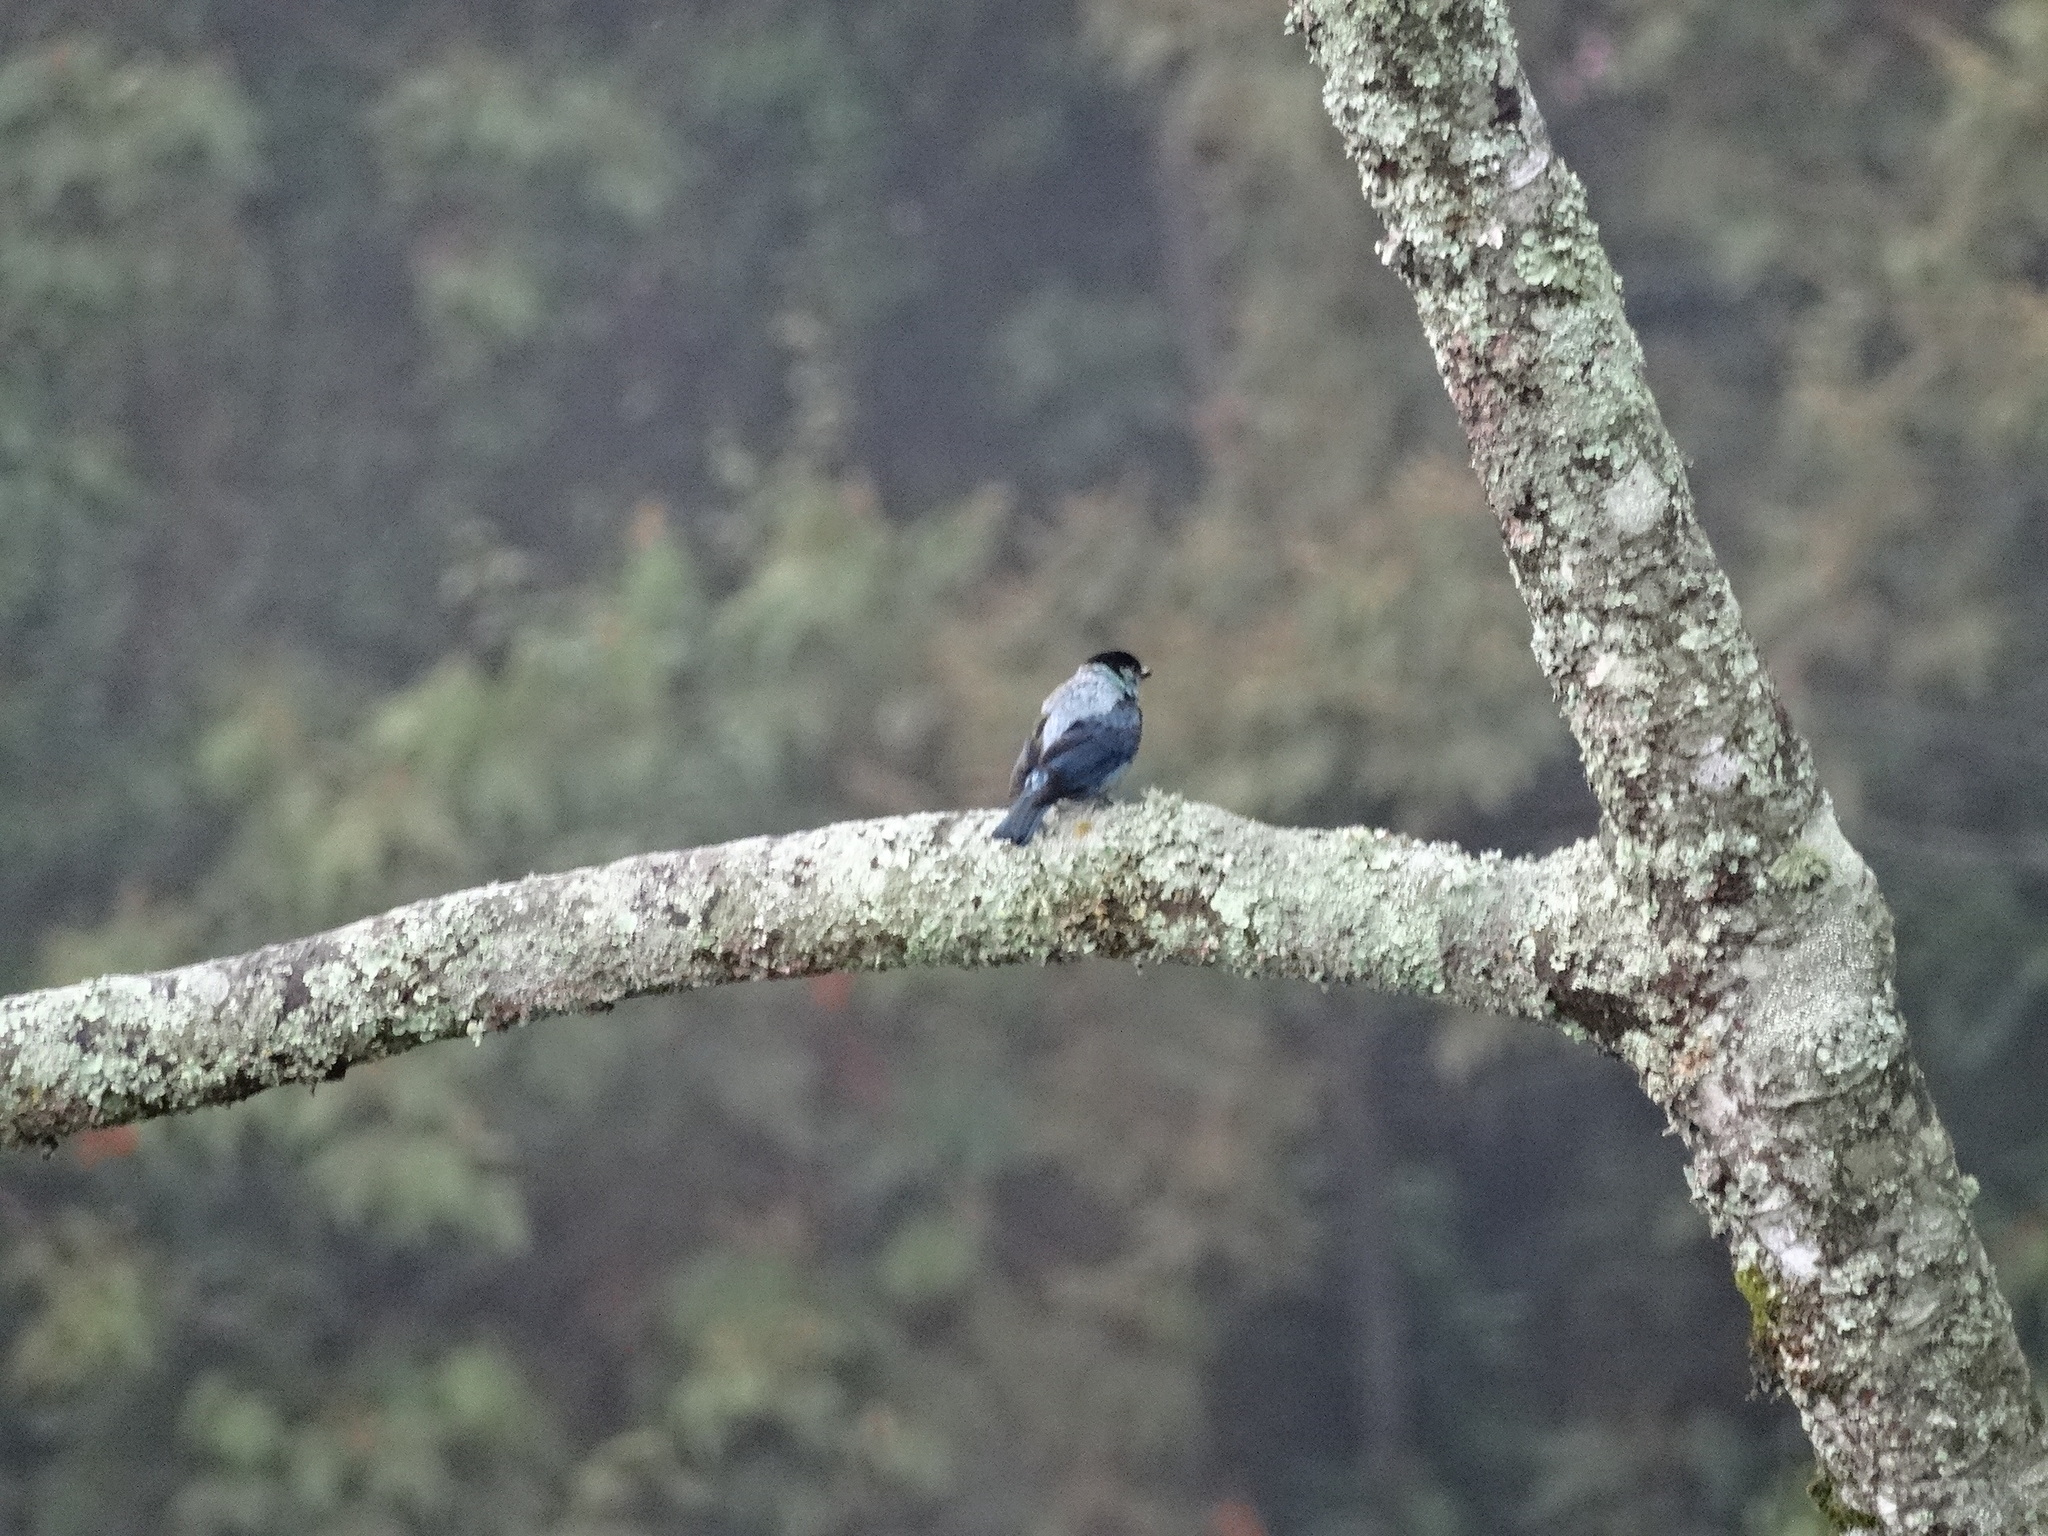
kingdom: Animalia
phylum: Chordata
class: Aves
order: Passeriformes
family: Thraupidae
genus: Stilpnia
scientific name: Stilpnia heinei
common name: Black-capped tanager
